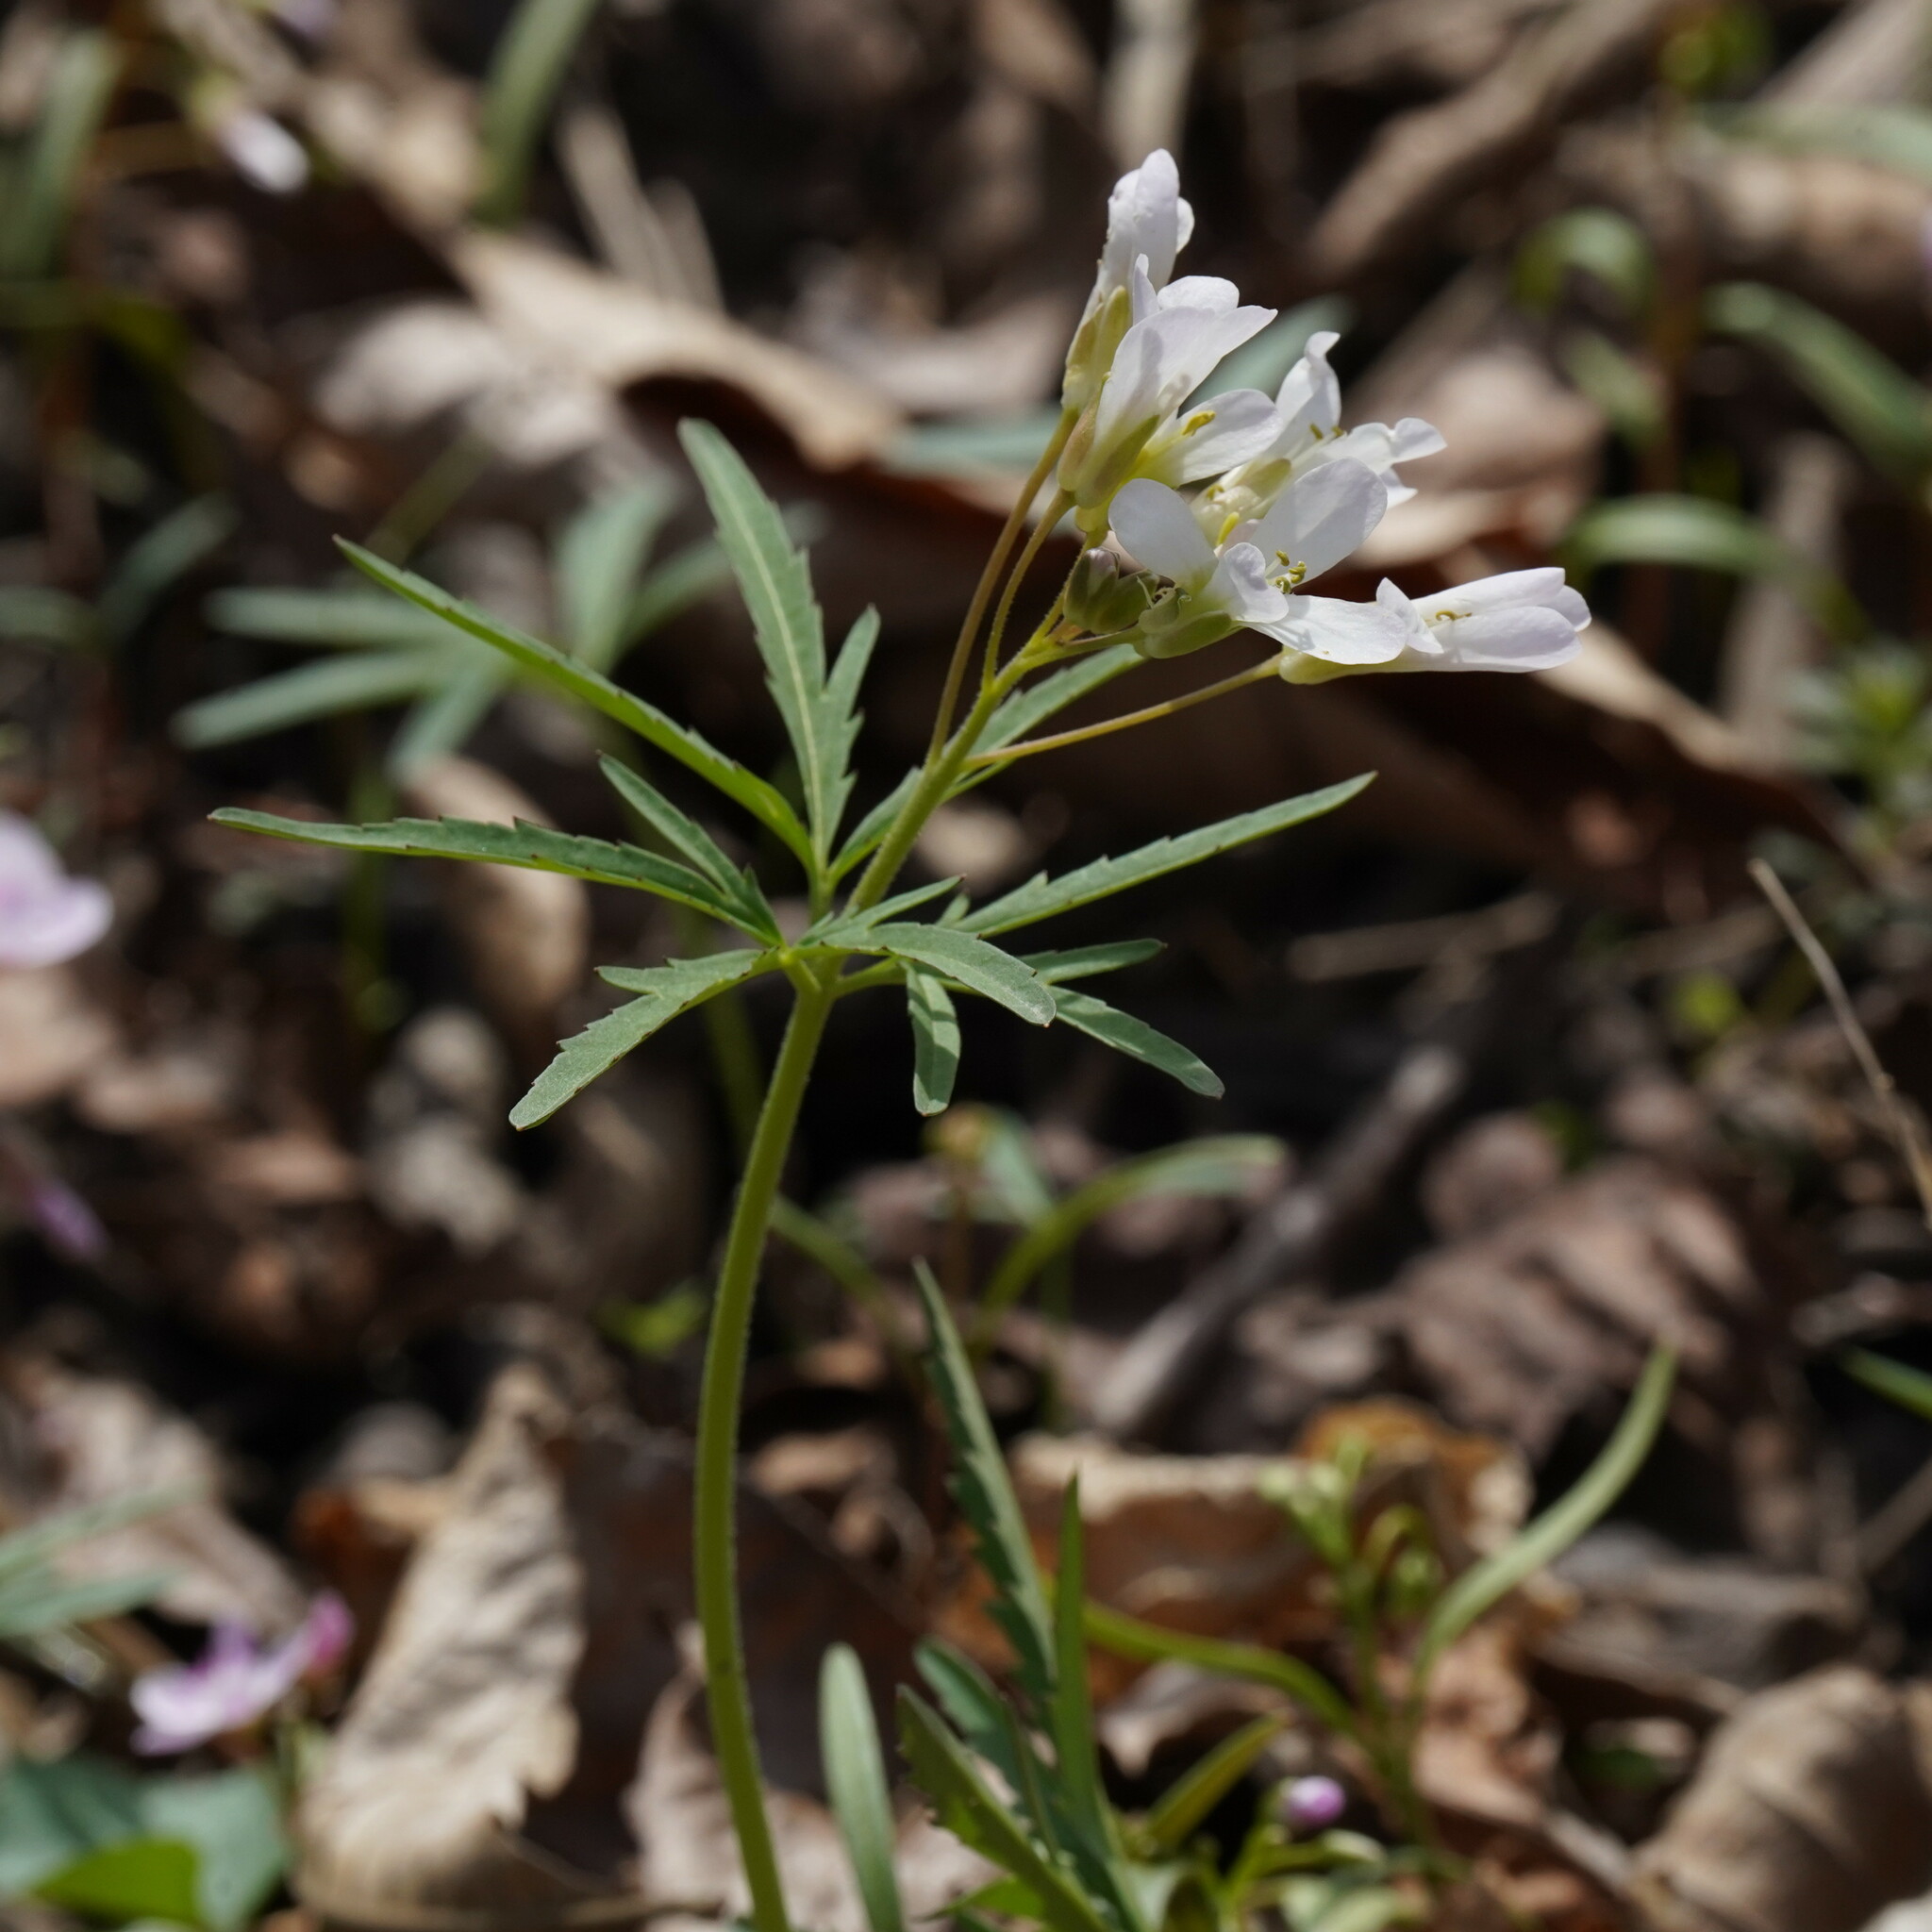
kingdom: Plantae
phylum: Tracheophyta
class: Magnoliopsida
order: Brassicales
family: Brassicaceae
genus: Cardamine
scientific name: Cardamine concatenata
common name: Cut-leaf toothcup
